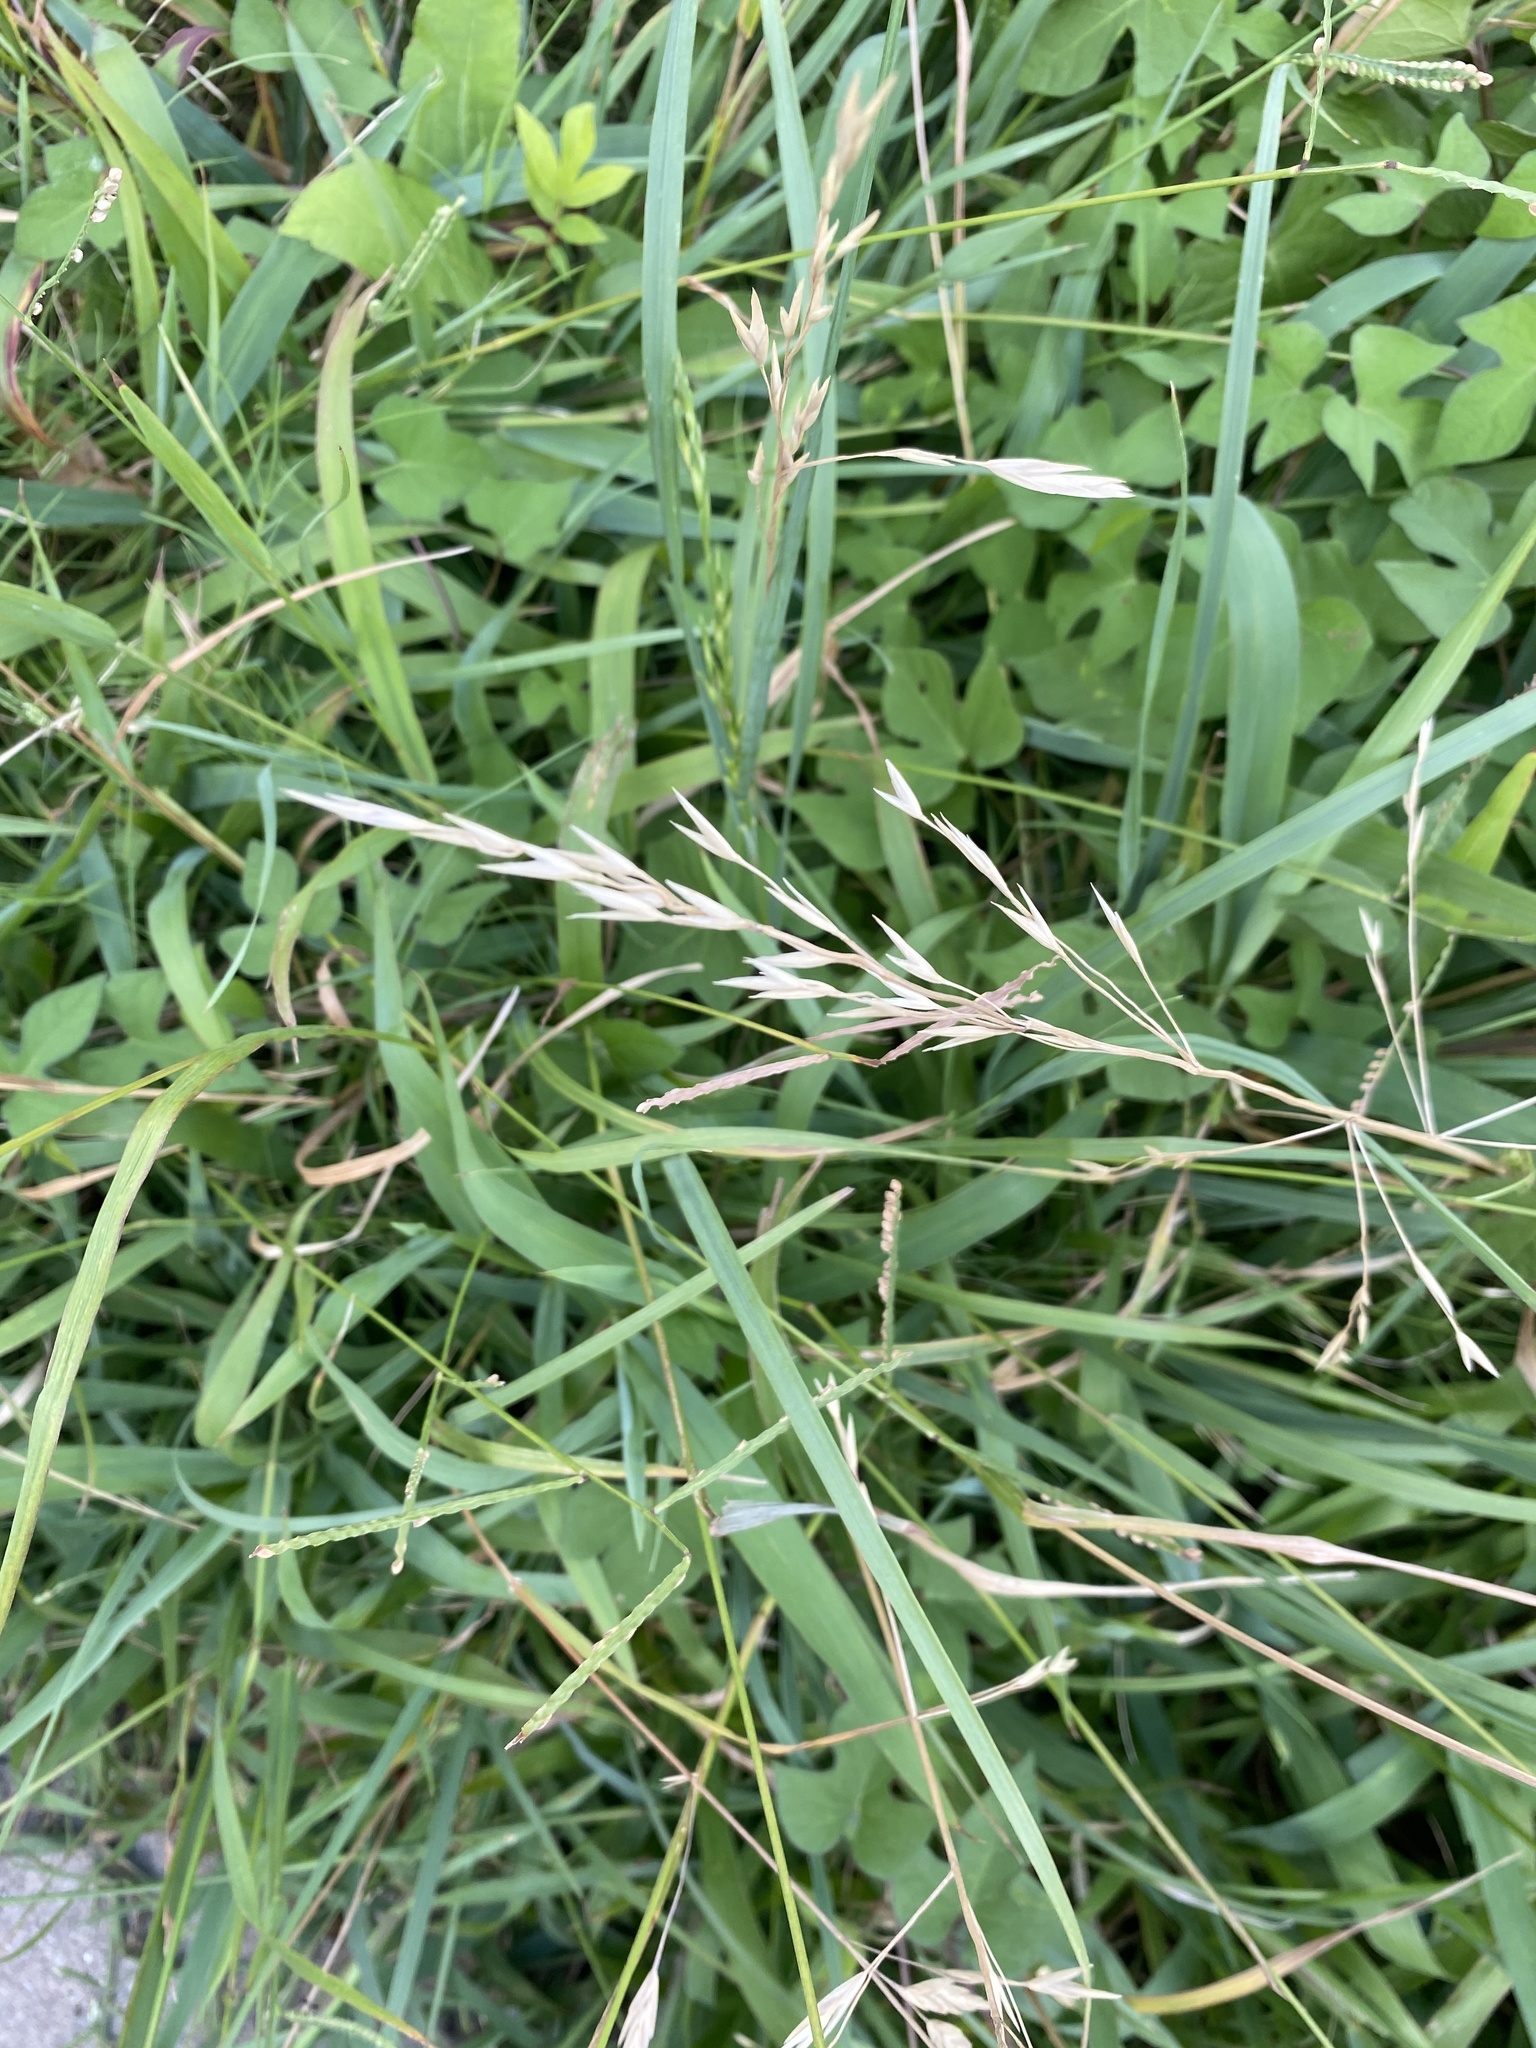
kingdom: Plantae
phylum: Tracheophyta
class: Liliopsida
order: Poales
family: Poaceae
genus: Bromus
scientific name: Bromus catharticus
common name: Rescuegrass
